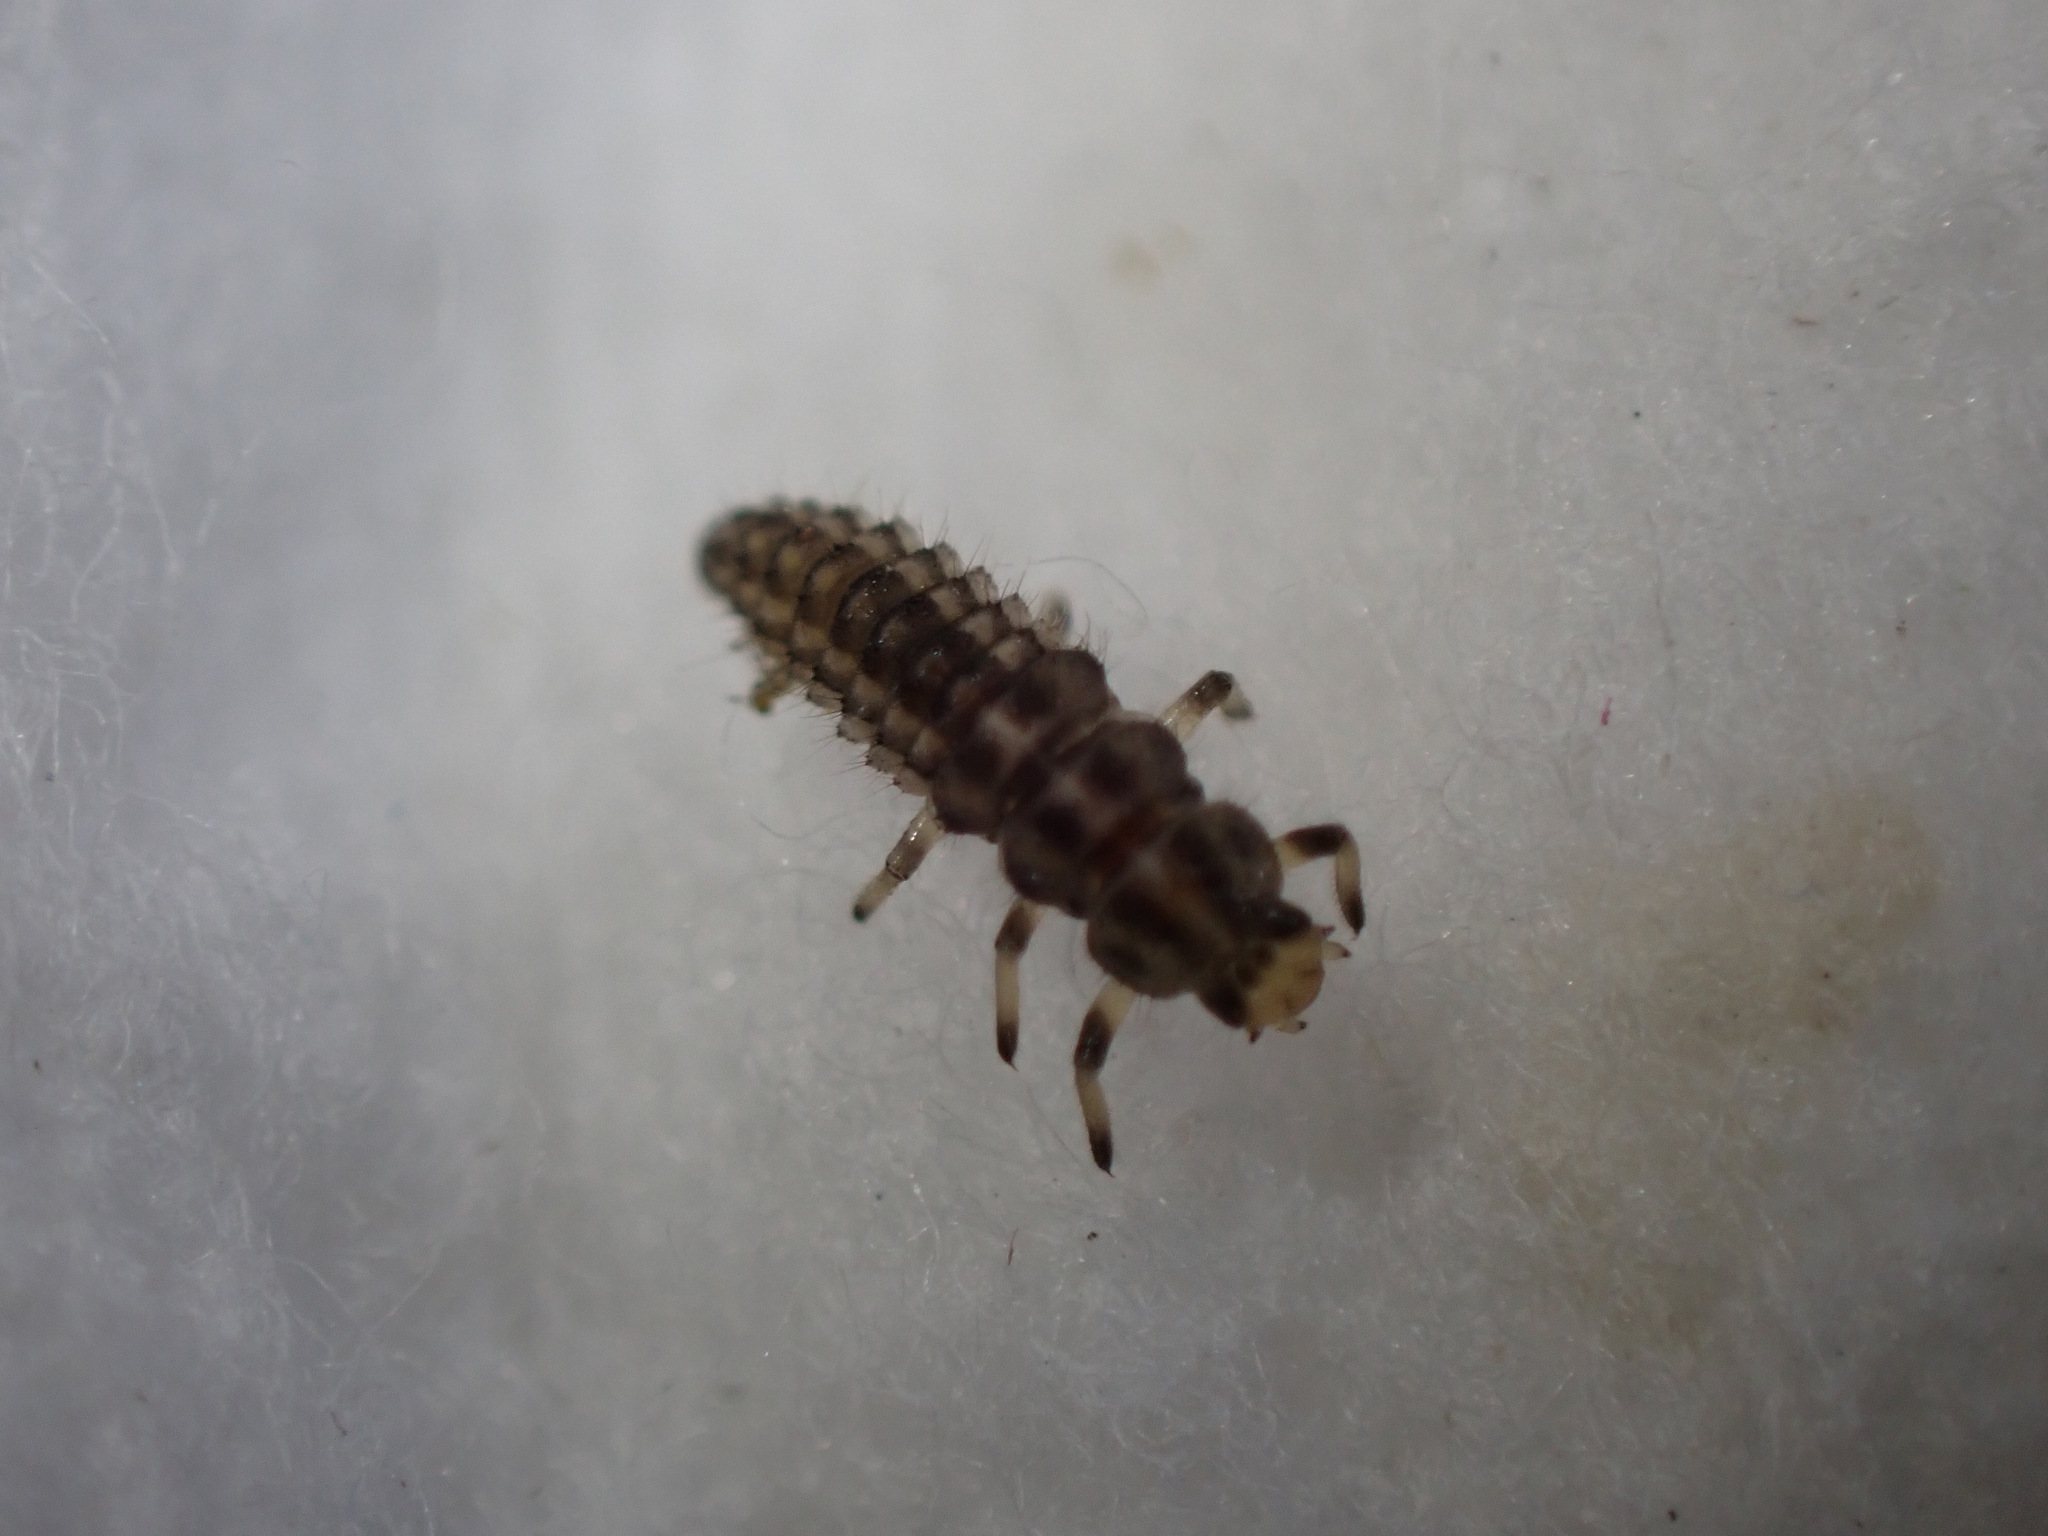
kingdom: Animalia
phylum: Arthropoda
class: Insecta
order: Coleoptera
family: Coccinellidae
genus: Anisosticta
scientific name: Anisosticta novemdecimpunctata
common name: Water ladybird
